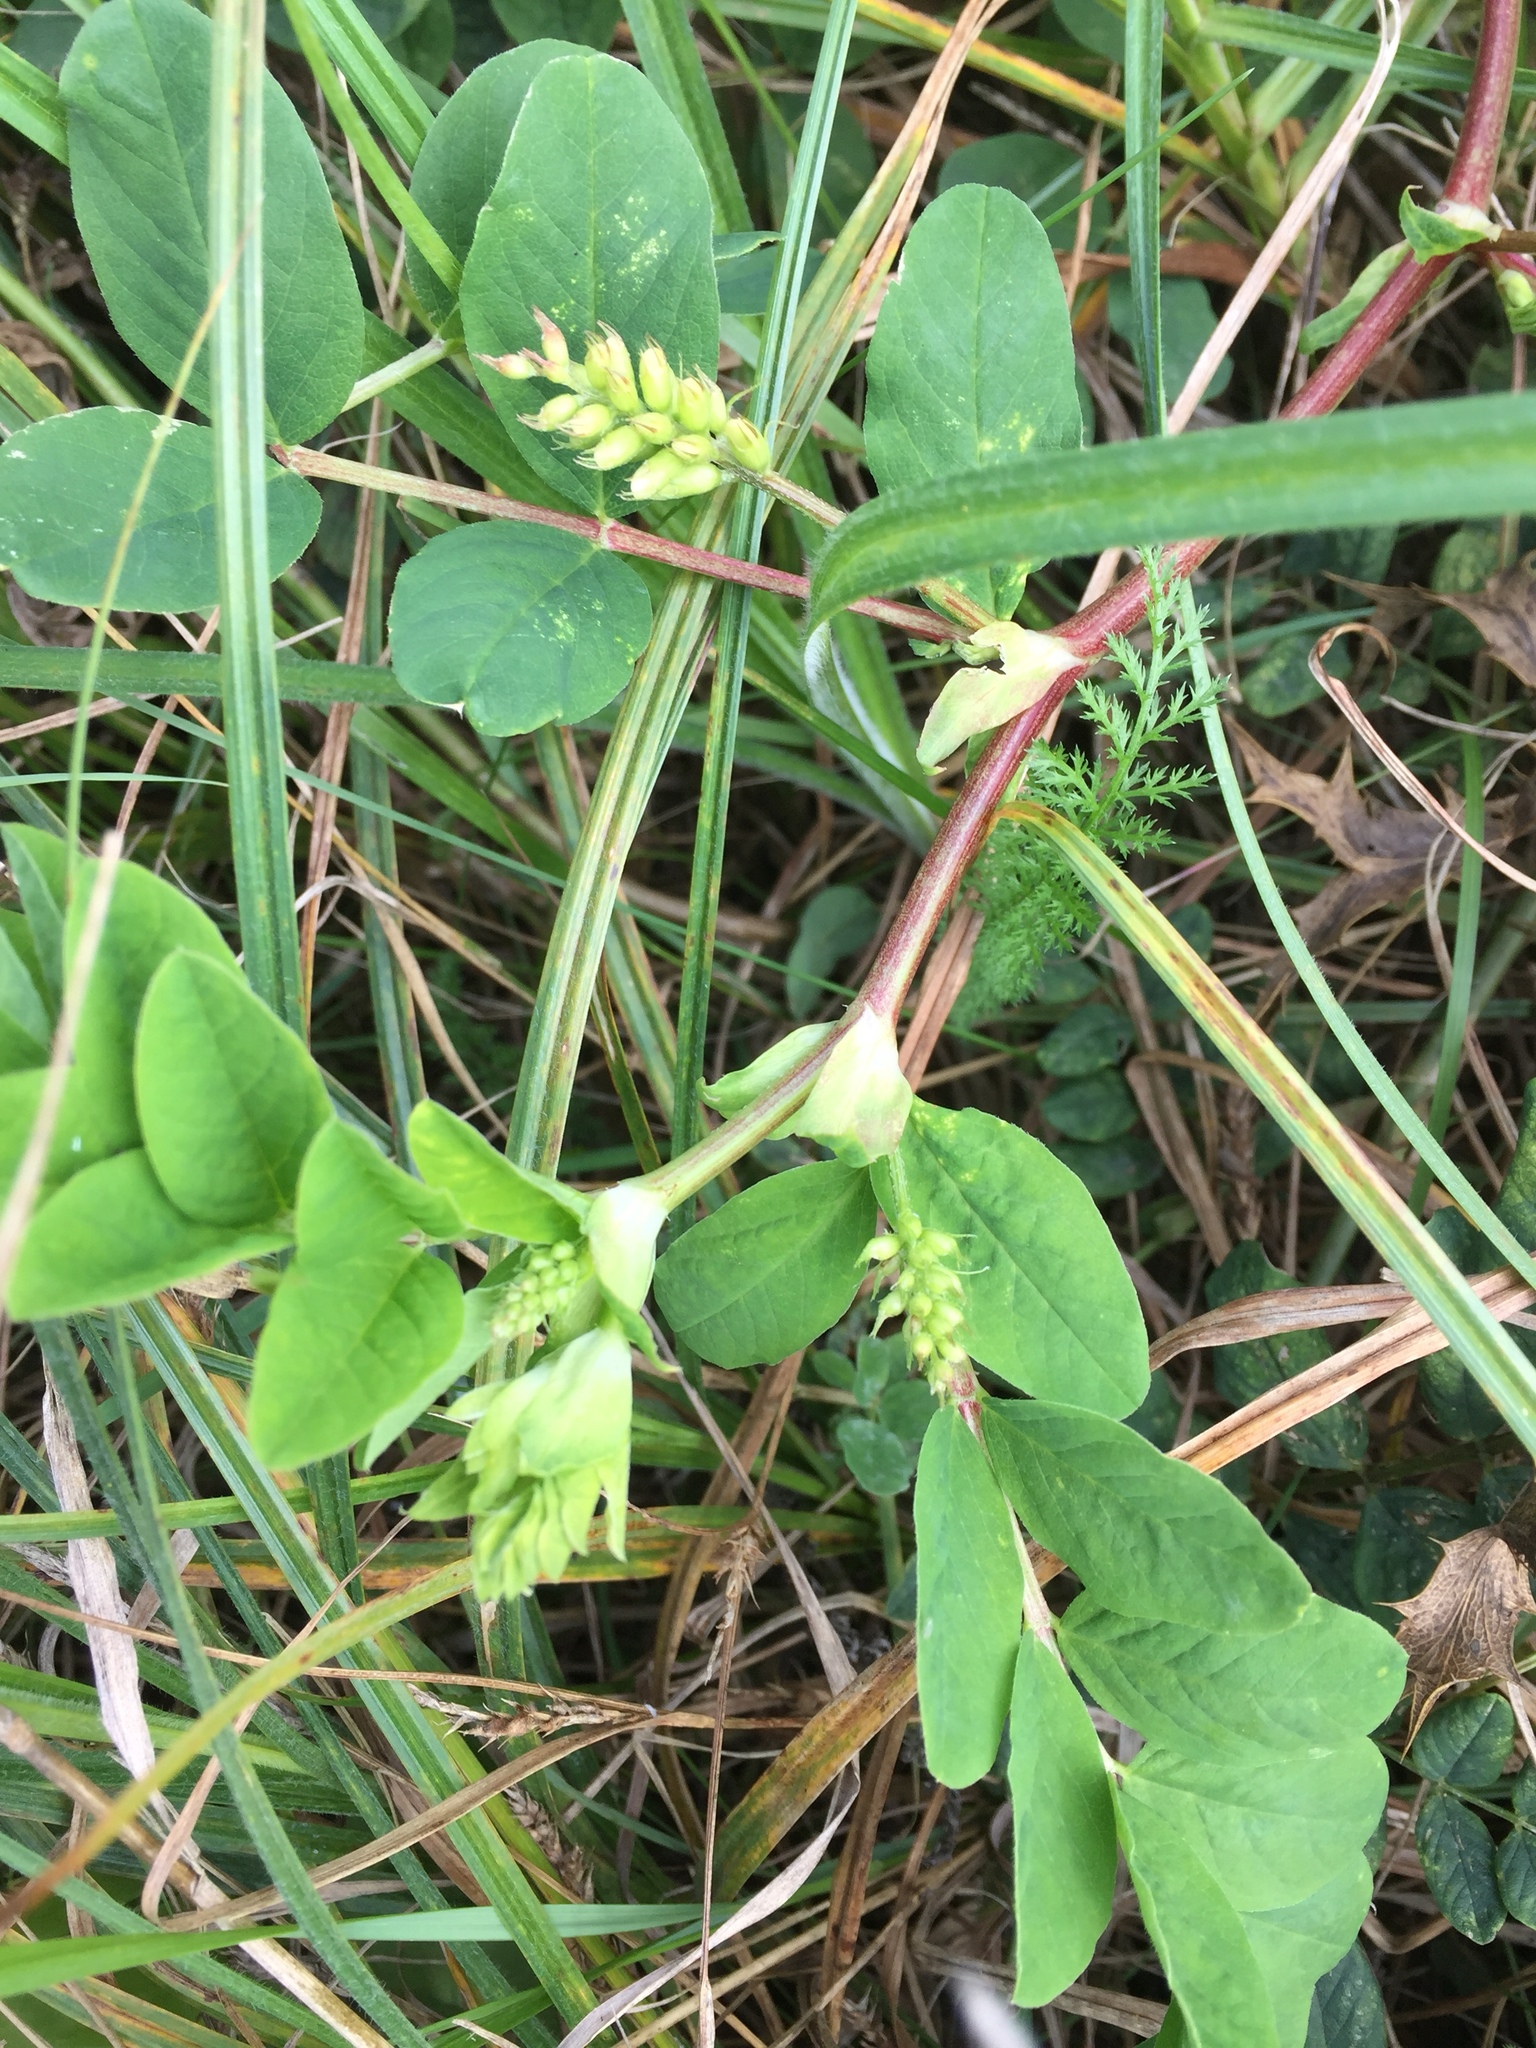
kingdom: Plantae
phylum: Tracheophyta
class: Magnoliopsida
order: Fabales
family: Fabaceae
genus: Astragalus
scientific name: Astragalus glycyphyllos
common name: Wild liquorice
